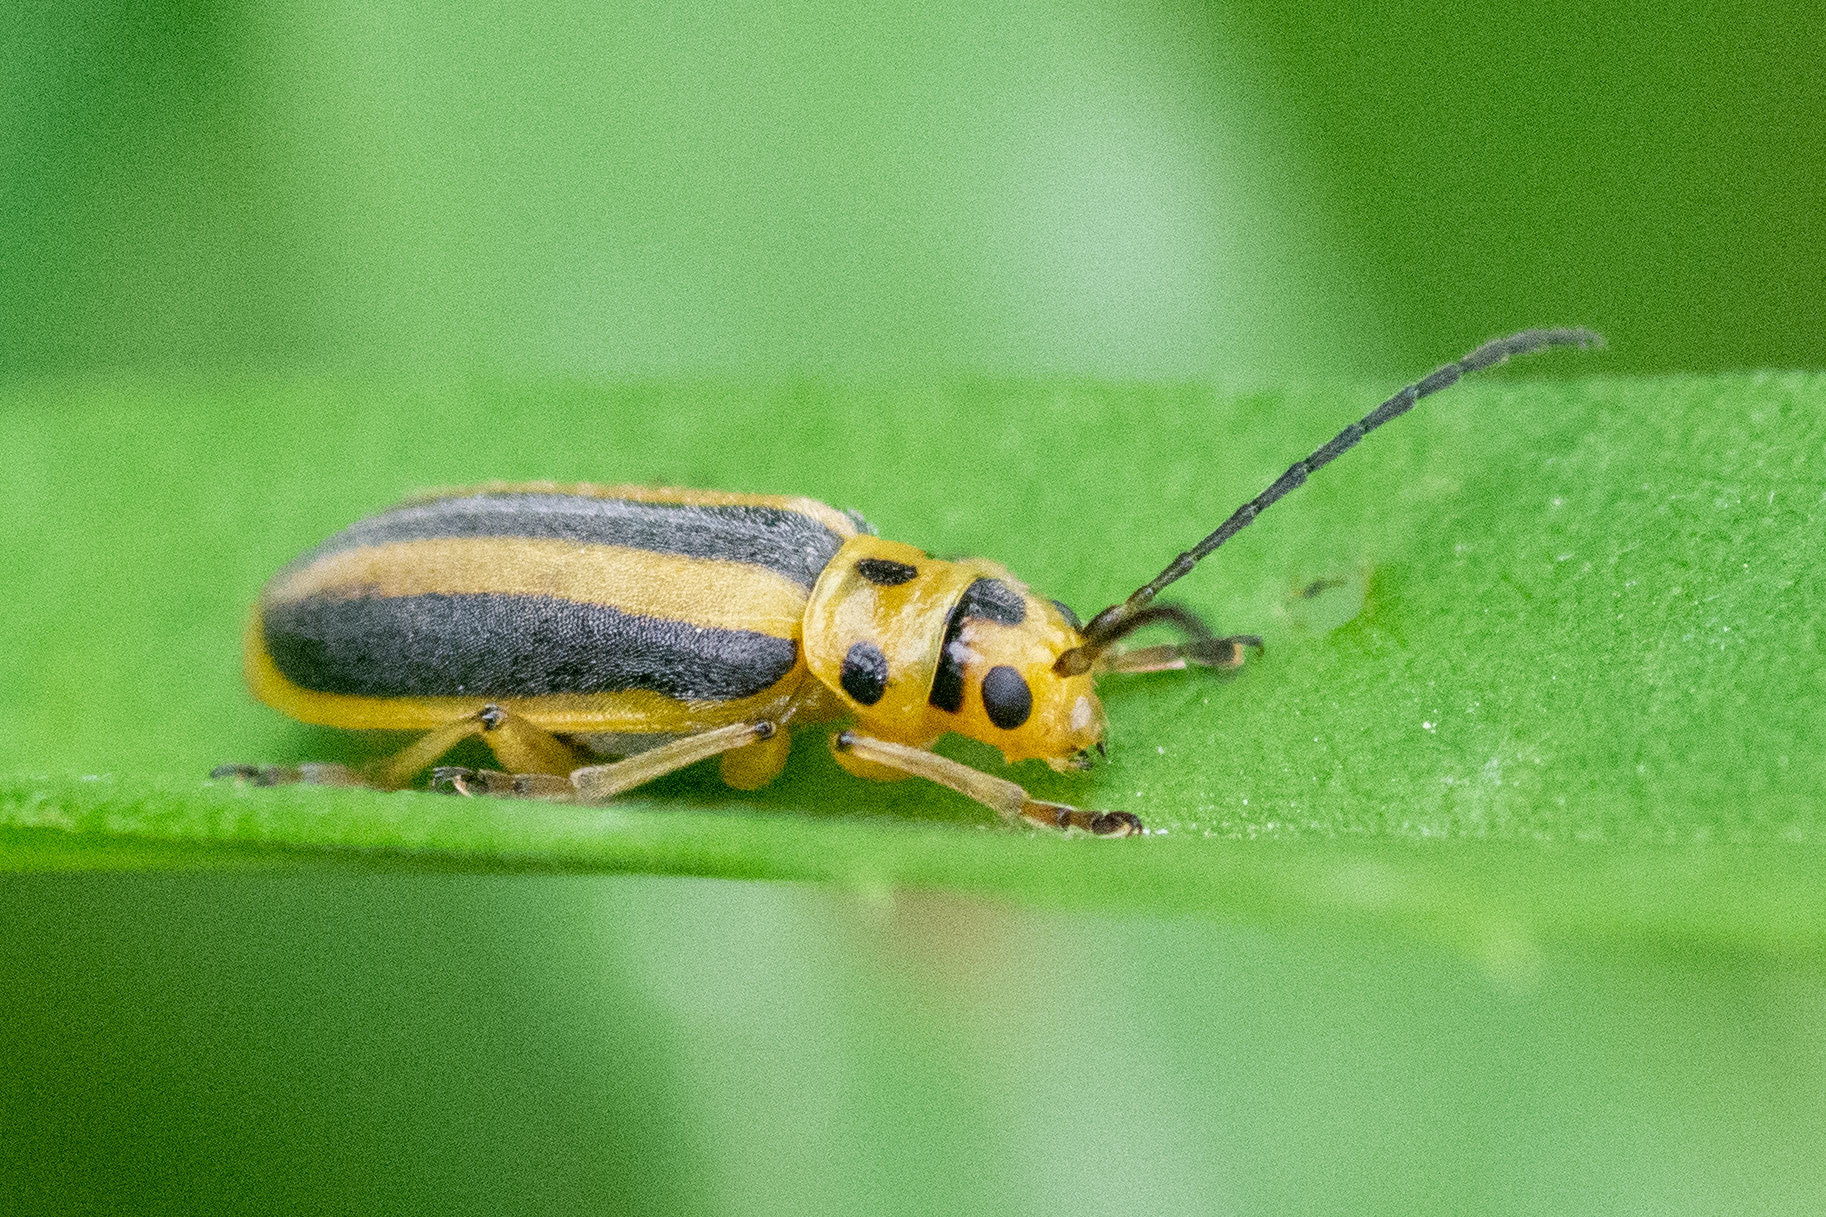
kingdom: Animalia
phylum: Arthropoda
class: Insecta
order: Coleoptera
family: Chrysomelidae
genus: Trirhabda
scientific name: Trirhabda canadensis
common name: Goldenrod leaf beetle
